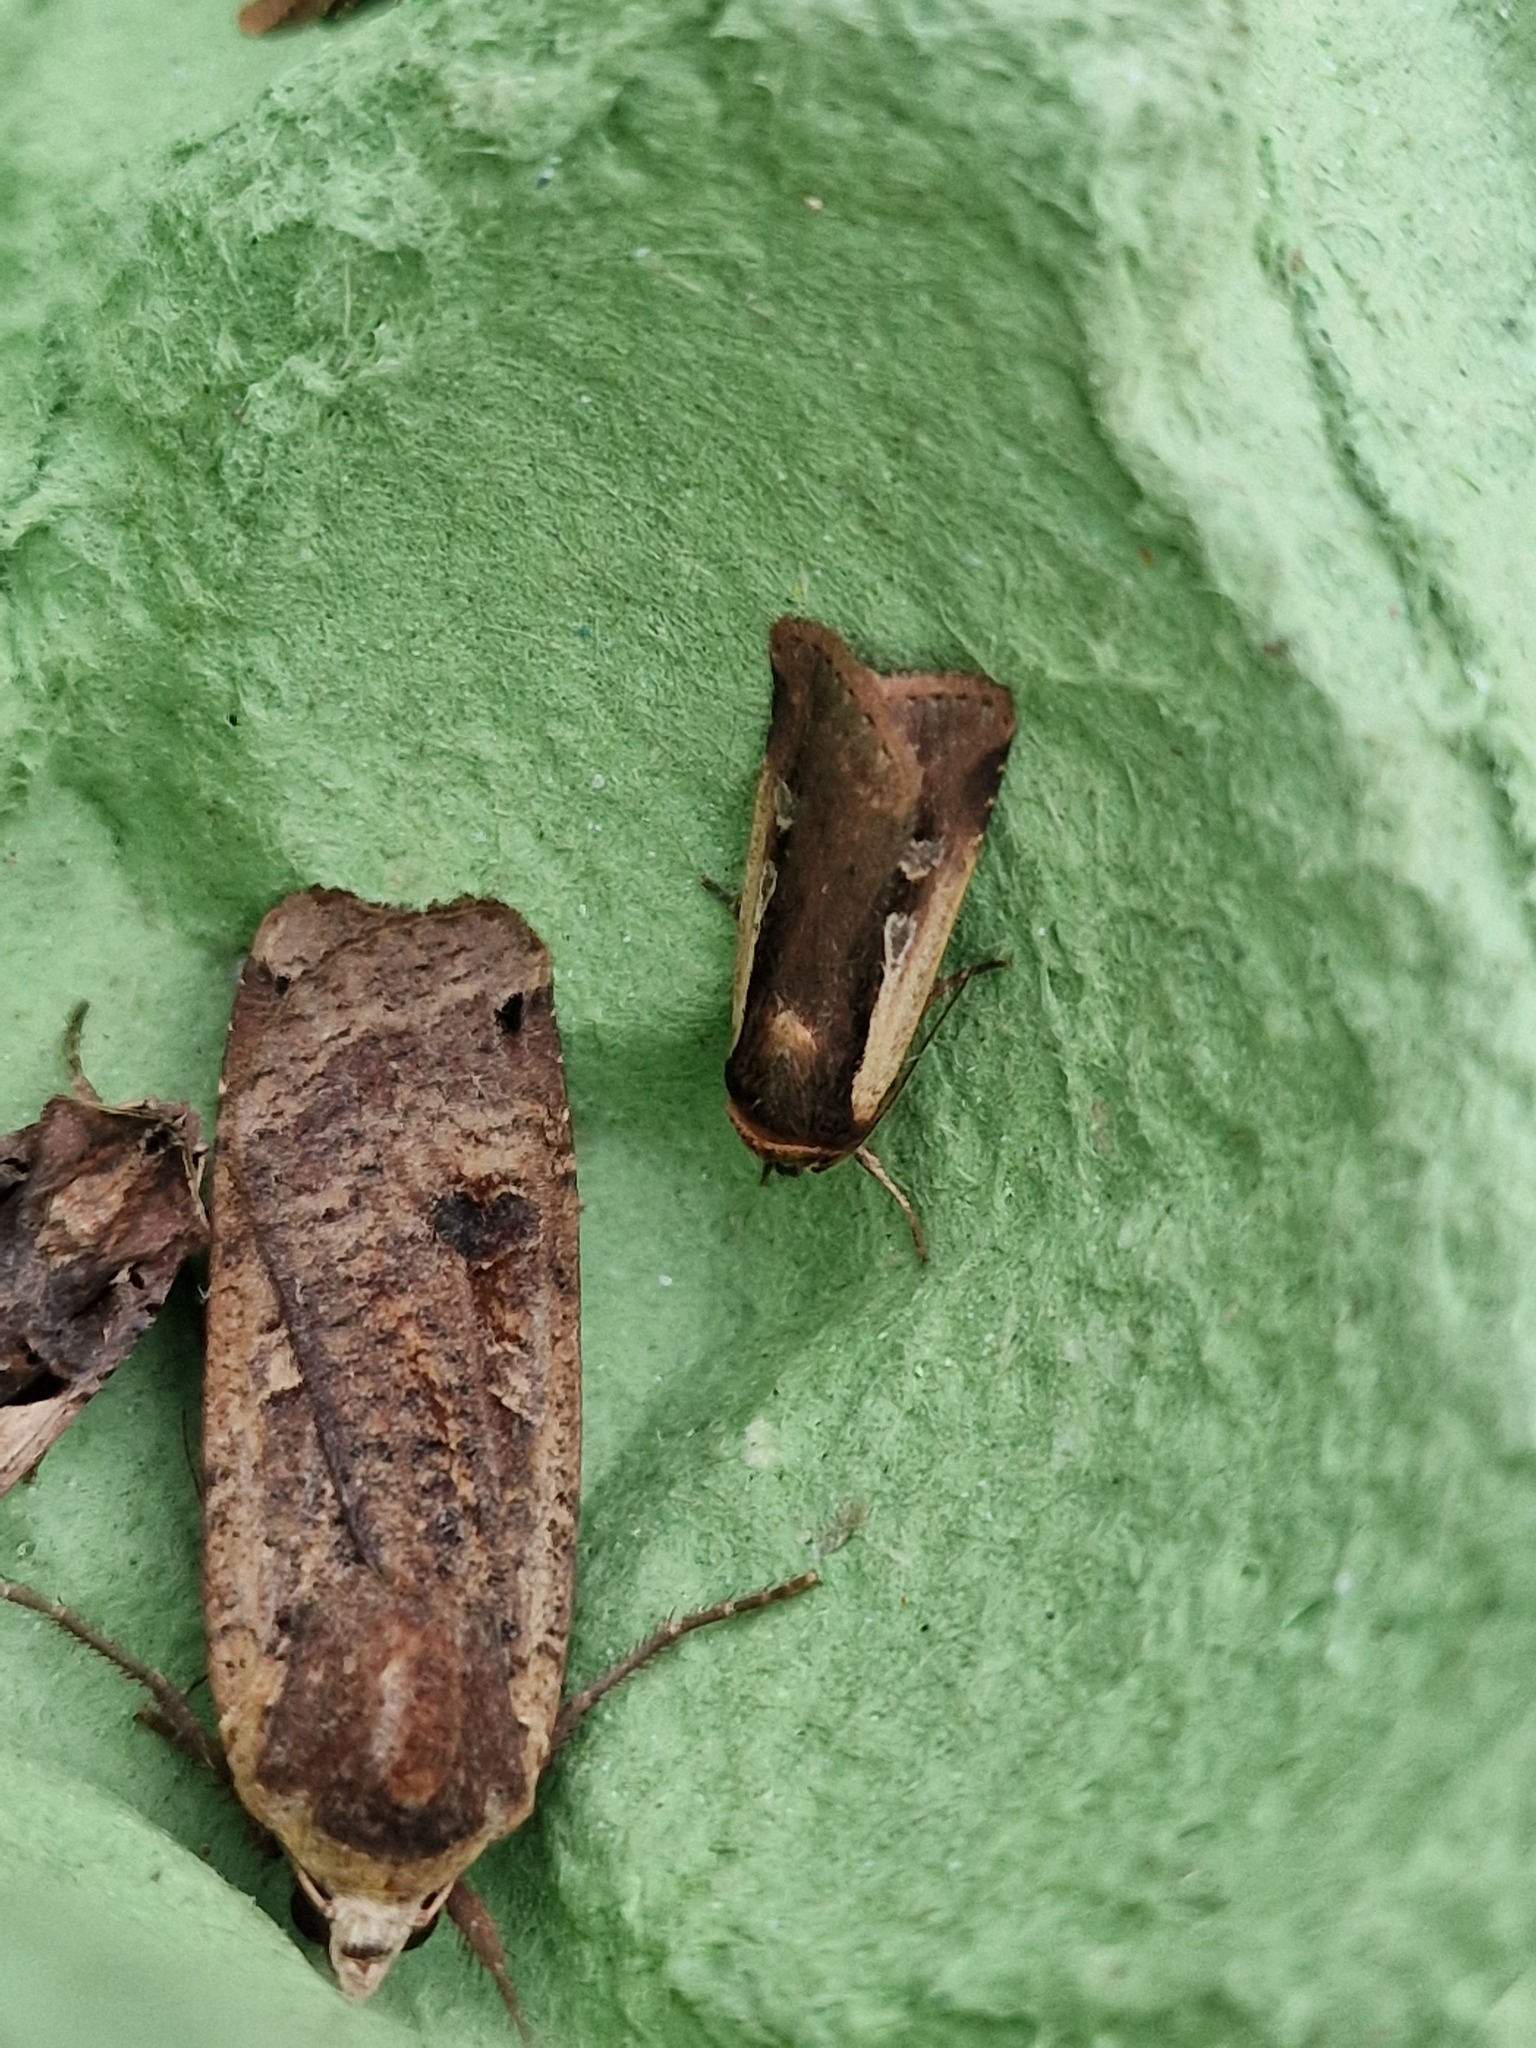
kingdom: Animalia
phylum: Arthropoda
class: Insecta
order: Lepidoptera
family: Noctuidae
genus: Ochropleura
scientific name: Ochropleura plecta
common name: Flame shoulder
